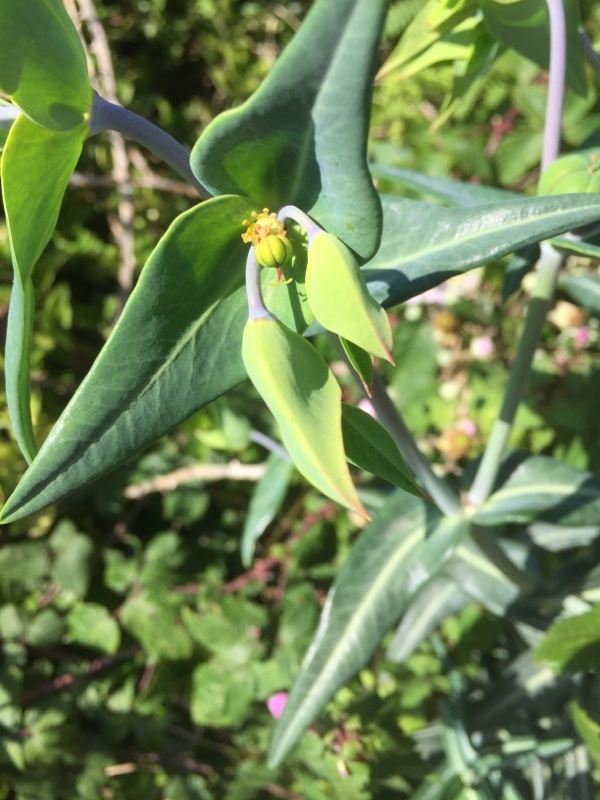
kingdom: Plantae
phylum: Tracheophyta
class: Magnoliopsida
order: Malpighiales
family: Euphorbiaceae
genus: Euphorbia
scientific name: Euphorbia lathyris
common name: Caper spurge
